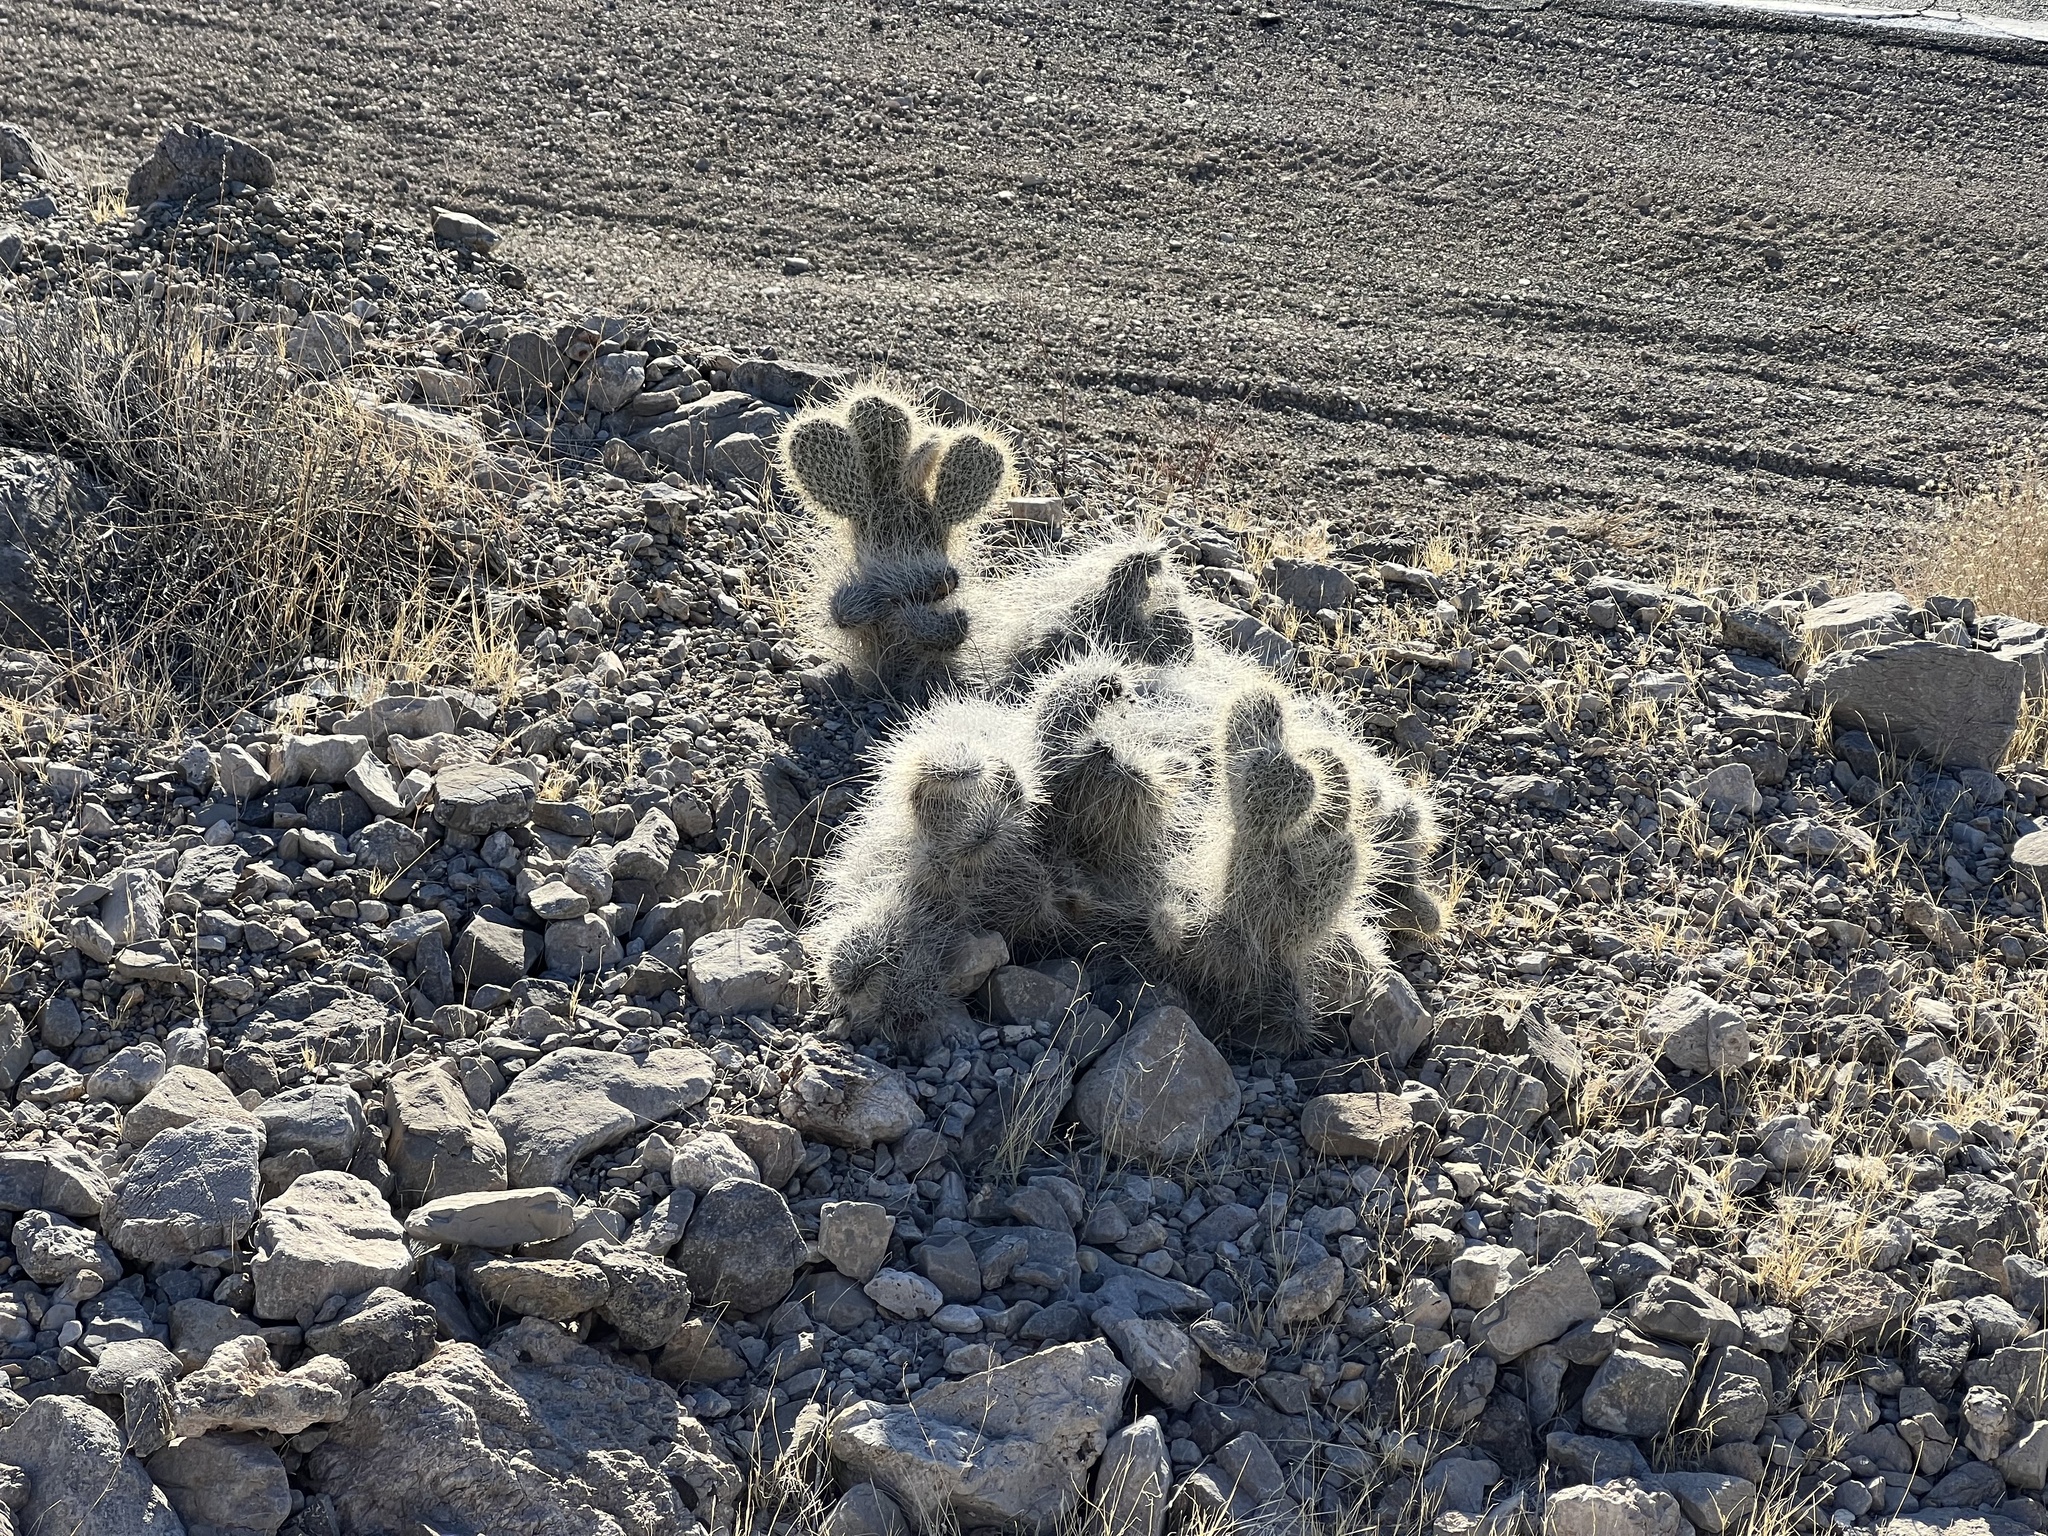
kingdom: Plantae
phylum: Tracheophyta
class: Magnoliopsida
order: Caryophyllales
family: Cactaceae
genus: Opuntia
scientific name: Opuntia polyacantha
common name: Plains prickly-pear
